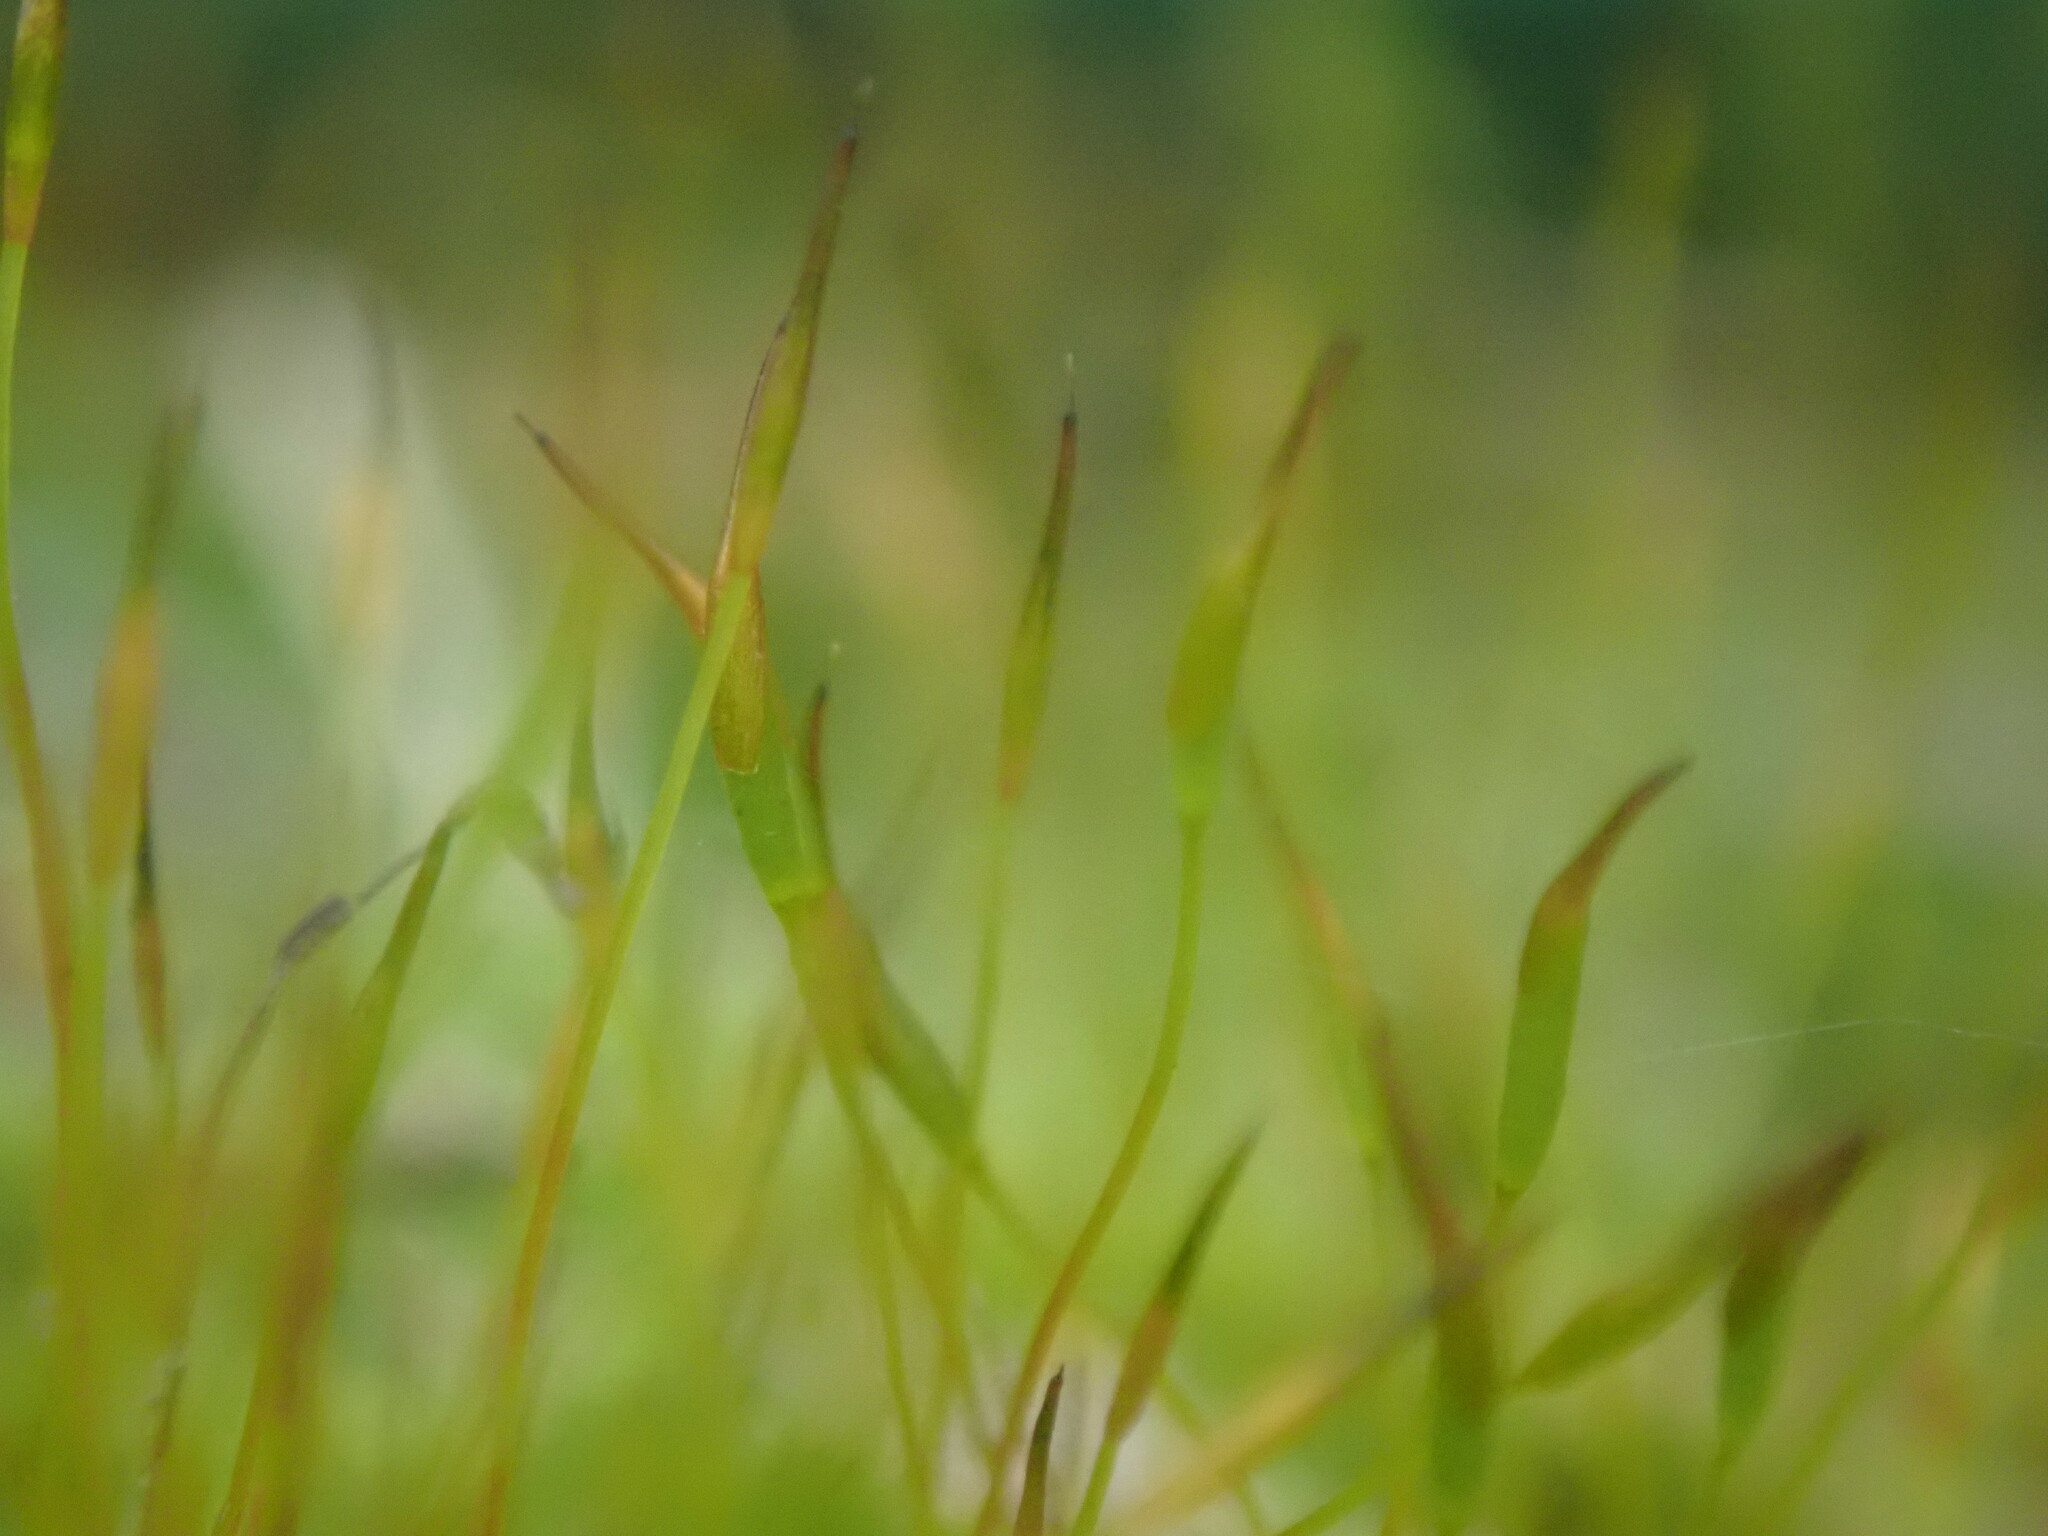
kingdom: Plantae
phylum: Bryophyta
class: Bryopsida
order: Pottiales
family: Pottiaceae
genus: Tortula
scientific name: Tortula muralis
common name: Wall screw-moss
